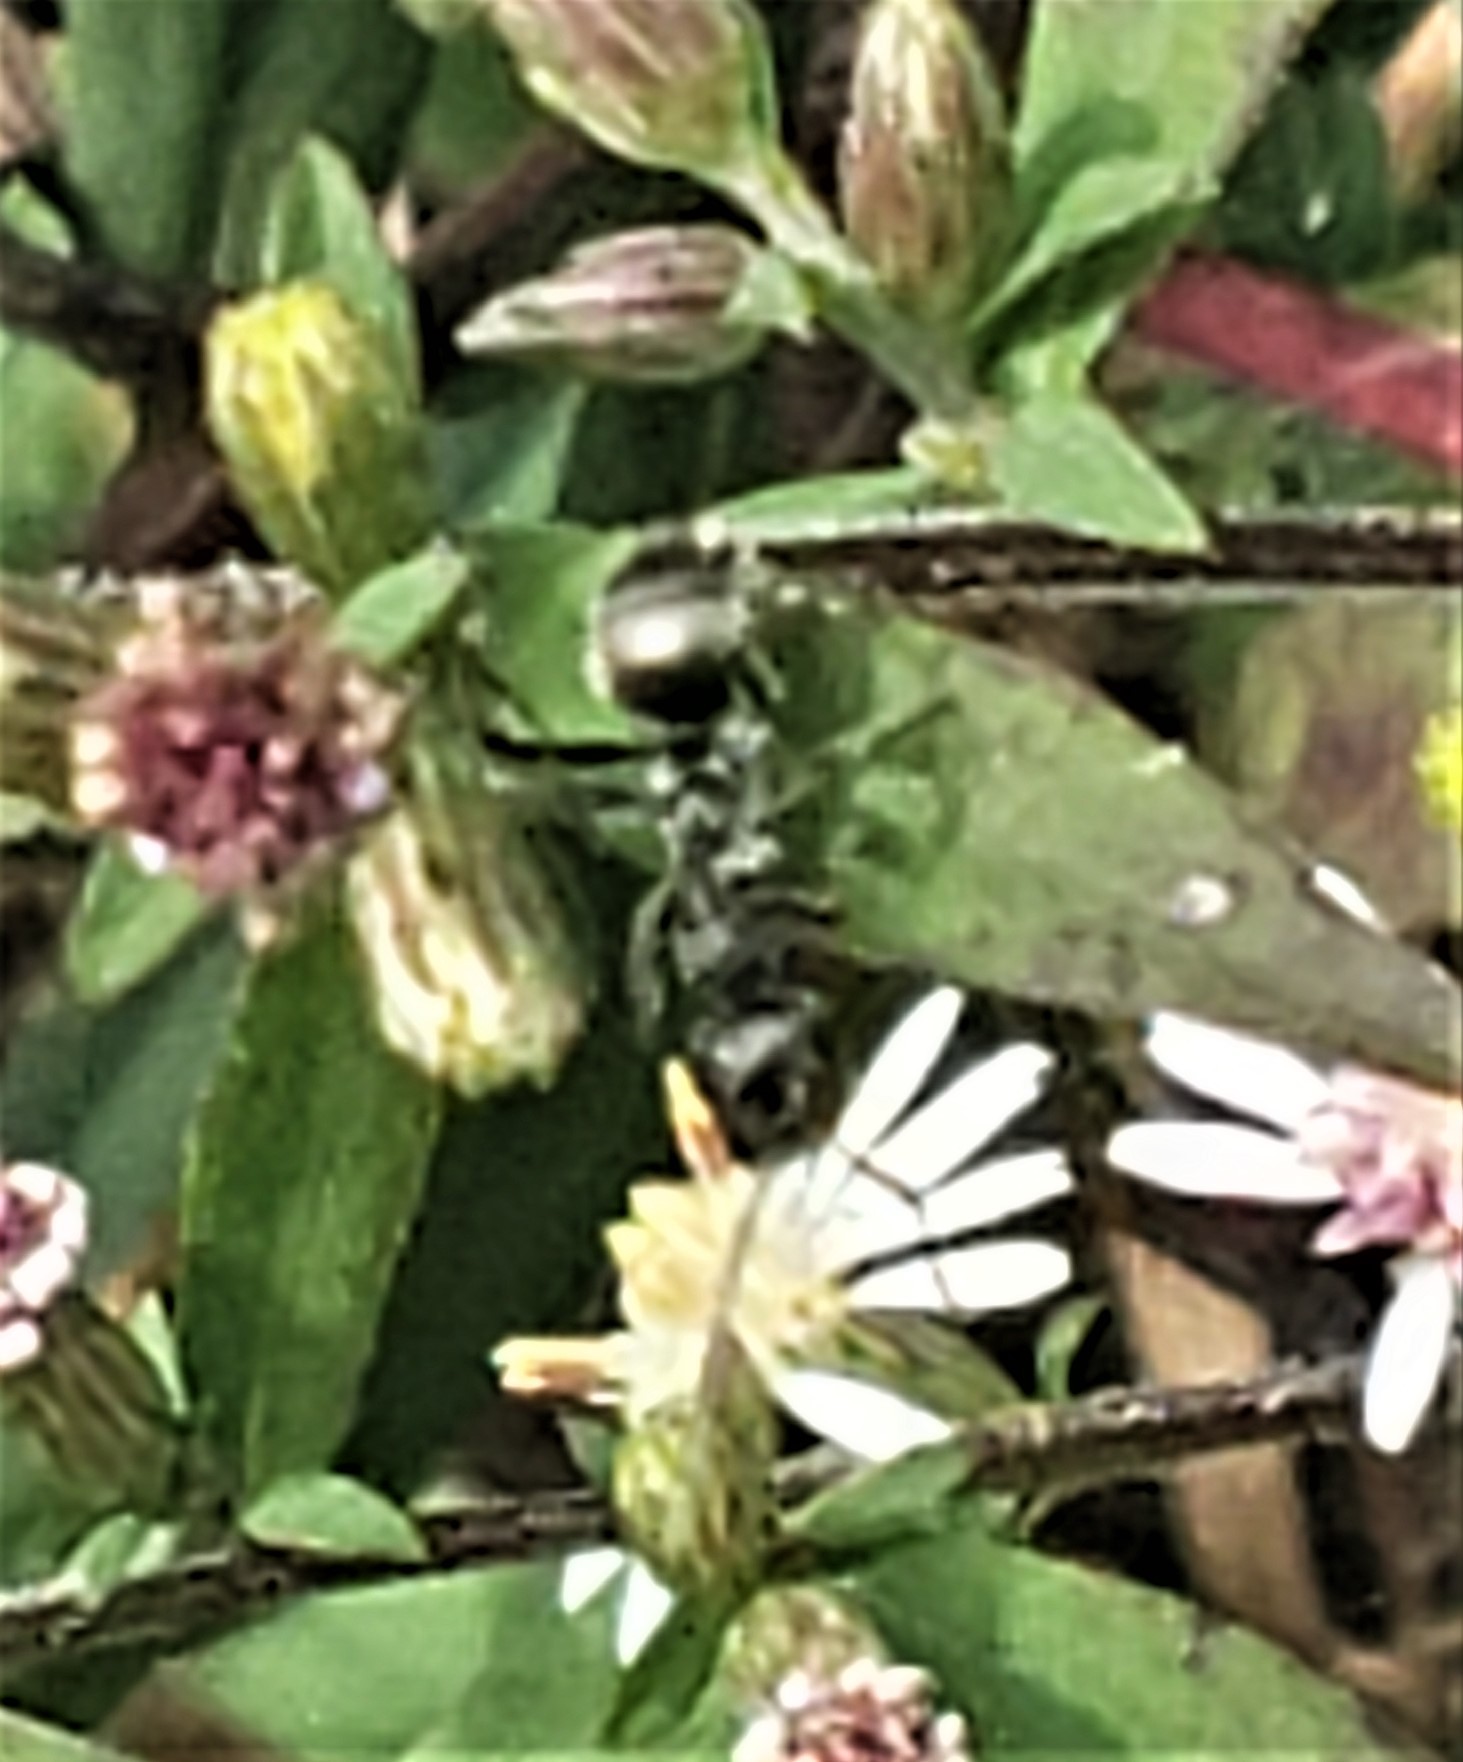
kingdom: Animalia
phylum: Arthropoda
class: Insecta
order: Hymenoptera
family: Formicidae
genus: Formica
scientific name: Formica
